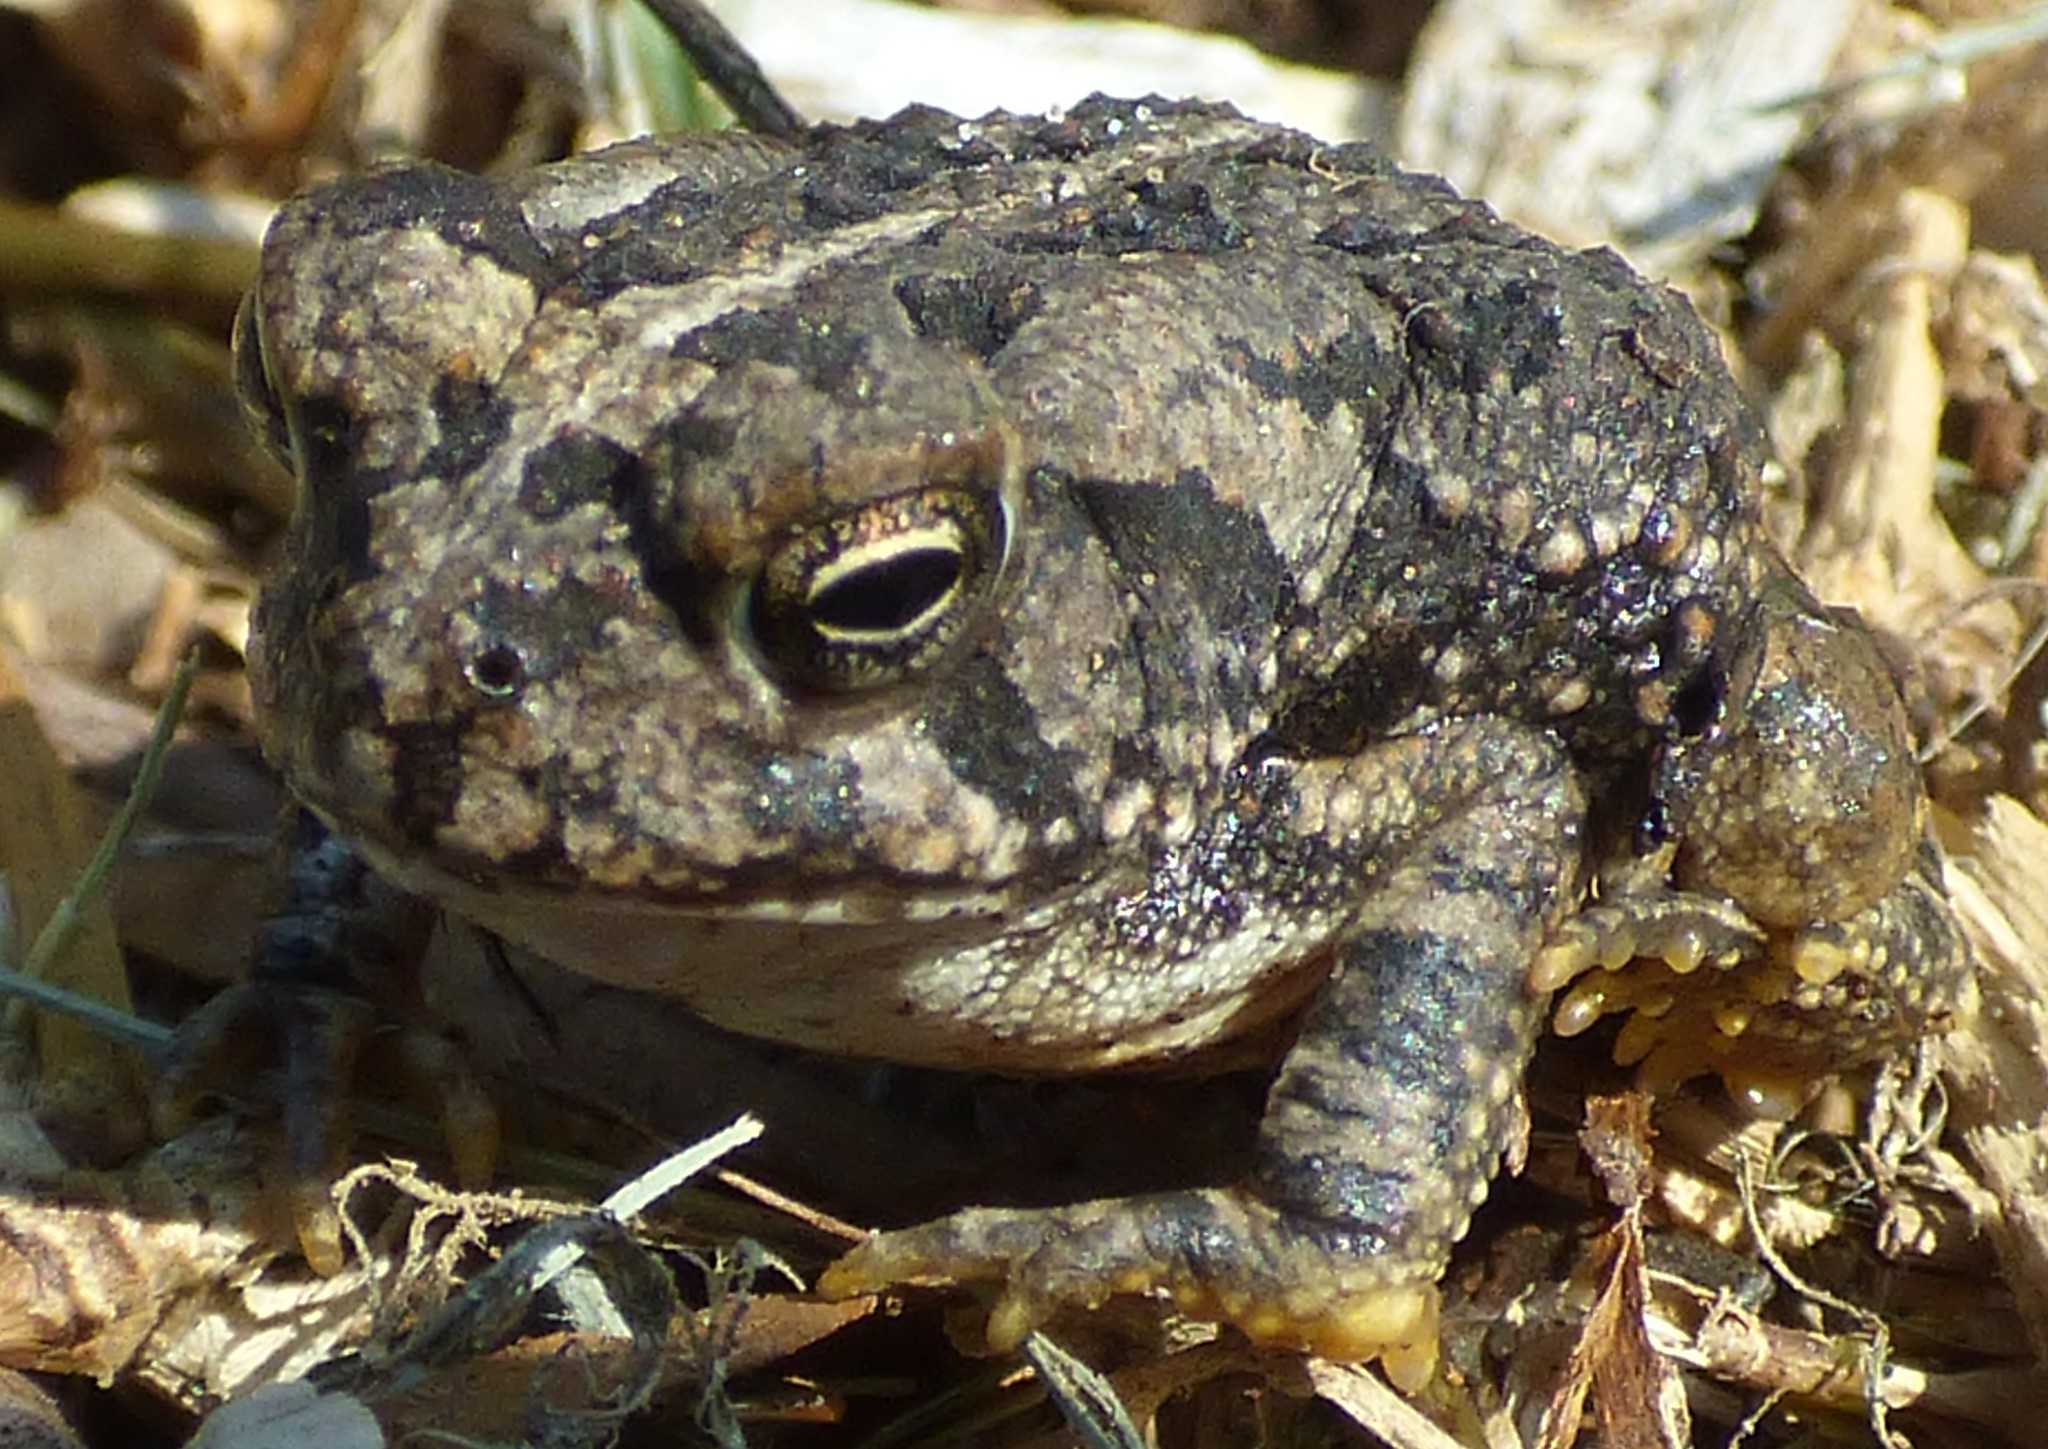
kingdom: Animalia
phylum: Chordata
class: Amphibia
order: Anura
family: Bufonidae
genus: Anaxyrus
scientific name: Anaxyrus fowleri
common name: Fowler's toad
